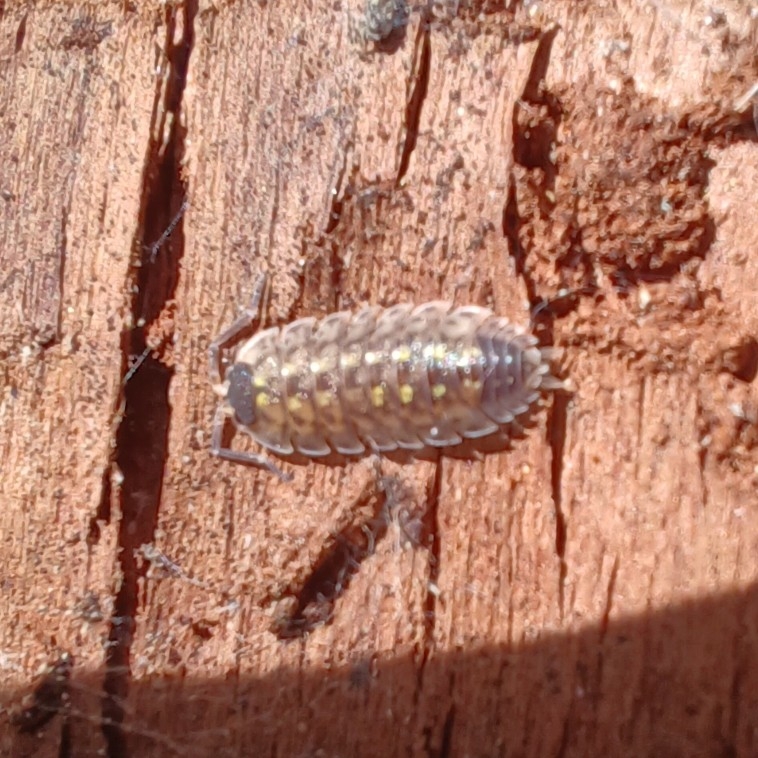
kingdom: Animalia
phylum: Arthropoda
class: Malacostraca
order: Isopoda
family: Porcellionidae
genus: Porcellio
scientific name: Porcellio spinicornis
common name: Painted woodlouse
